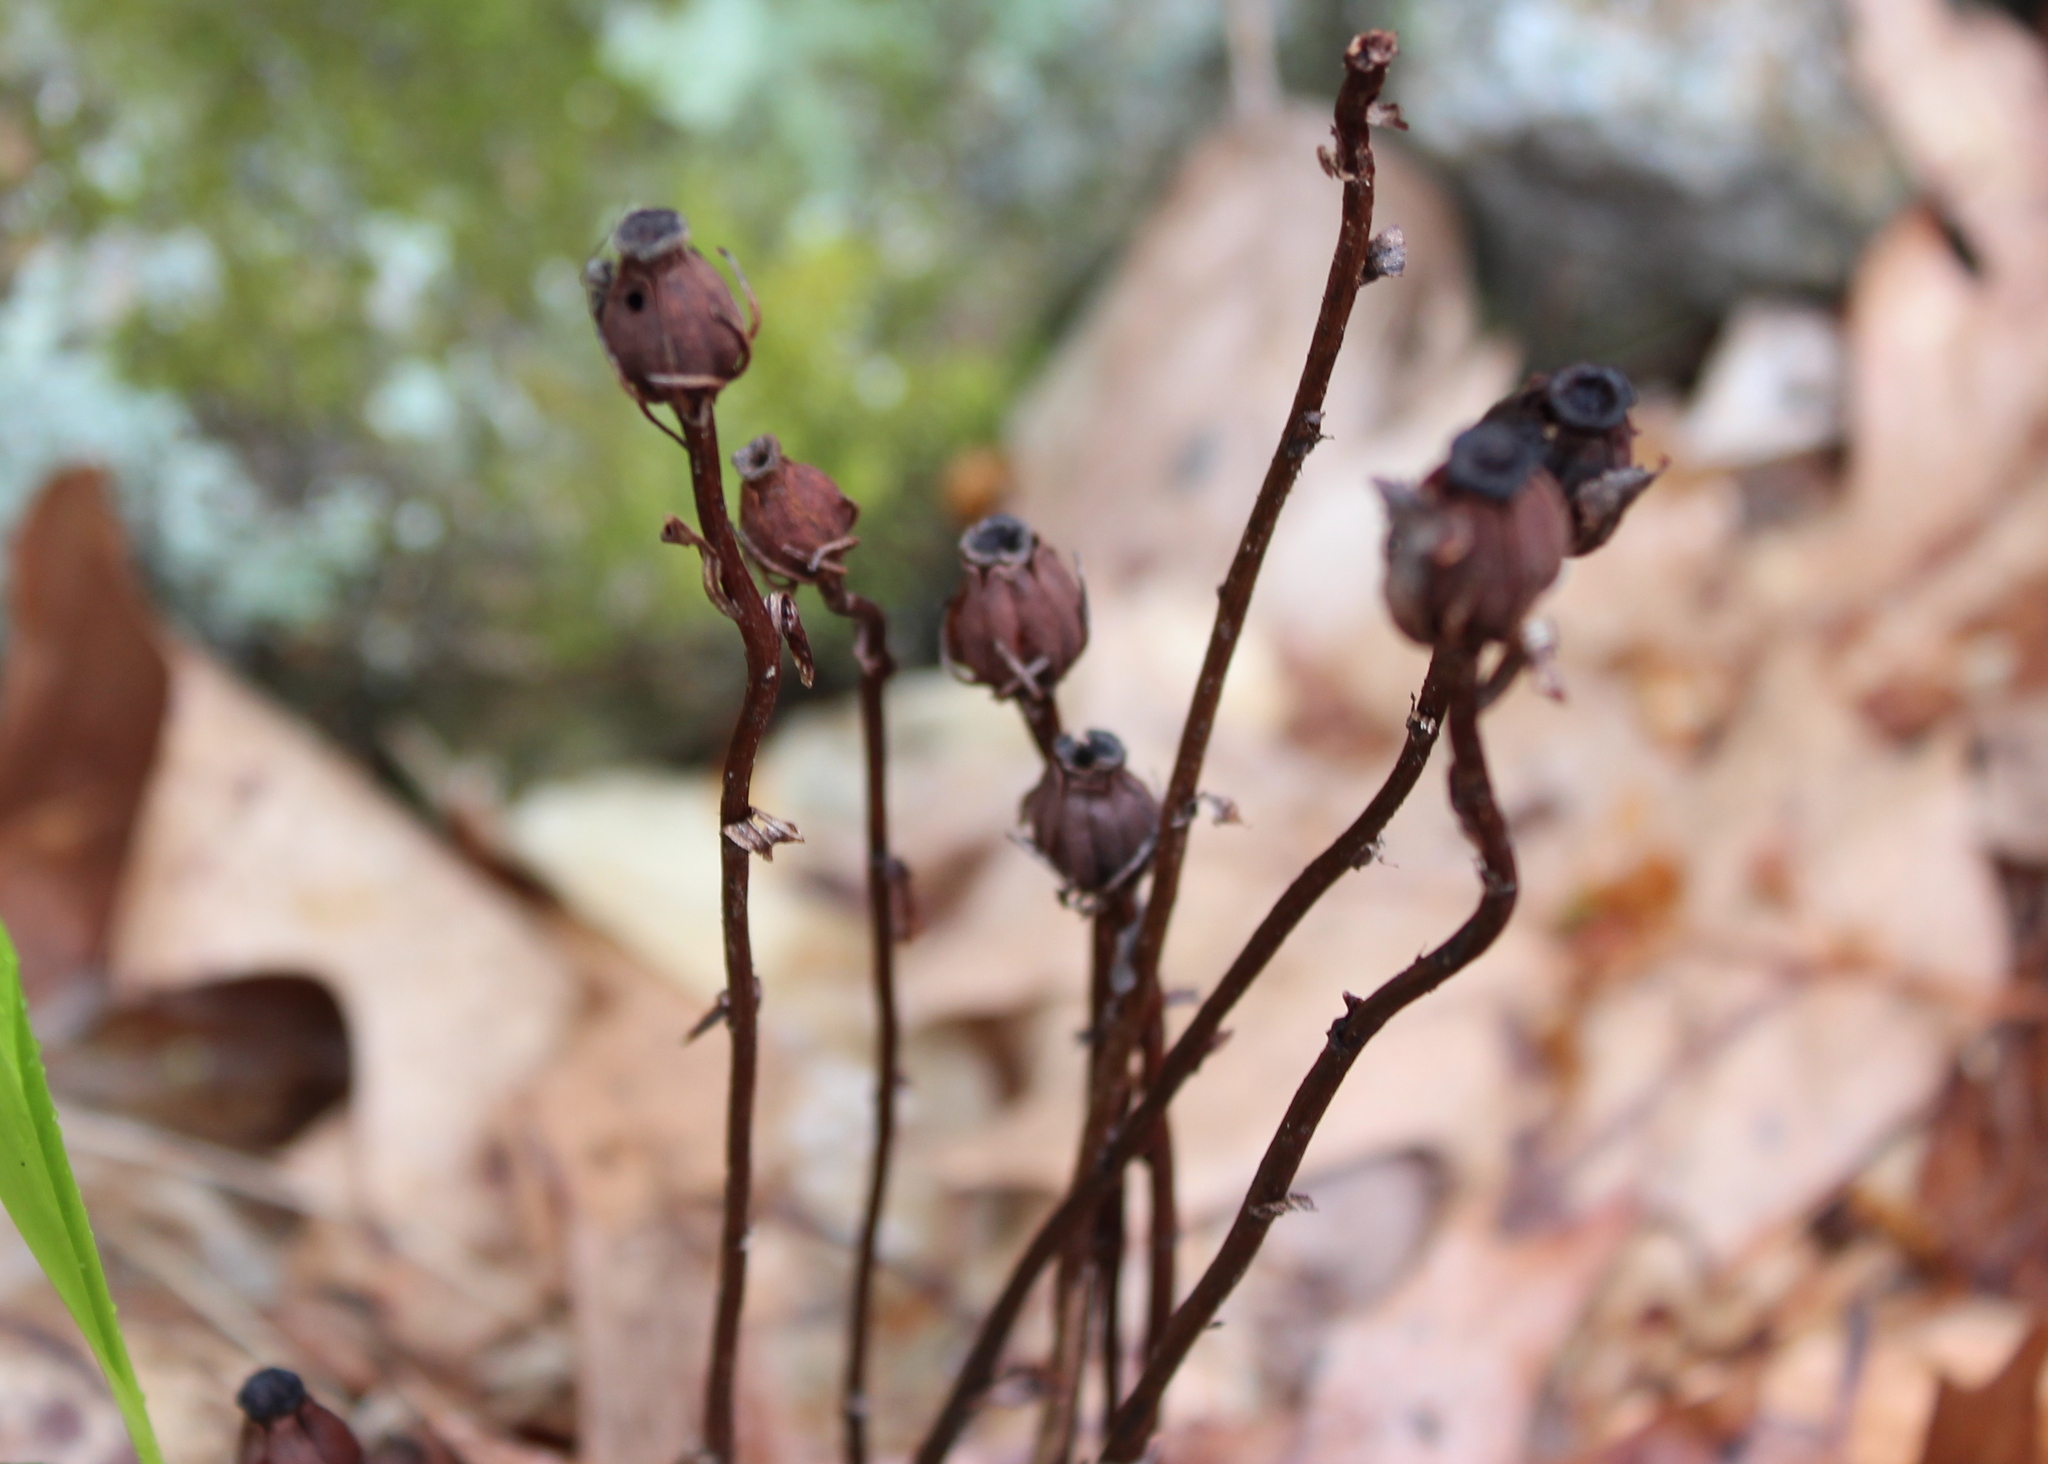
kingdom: Plantae
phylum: Tracheophyta
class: Magnoliopsida
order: Ericales
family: Ericaceae
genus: Monotropa
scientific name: Monotropa uniflora
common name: Convulsion root
